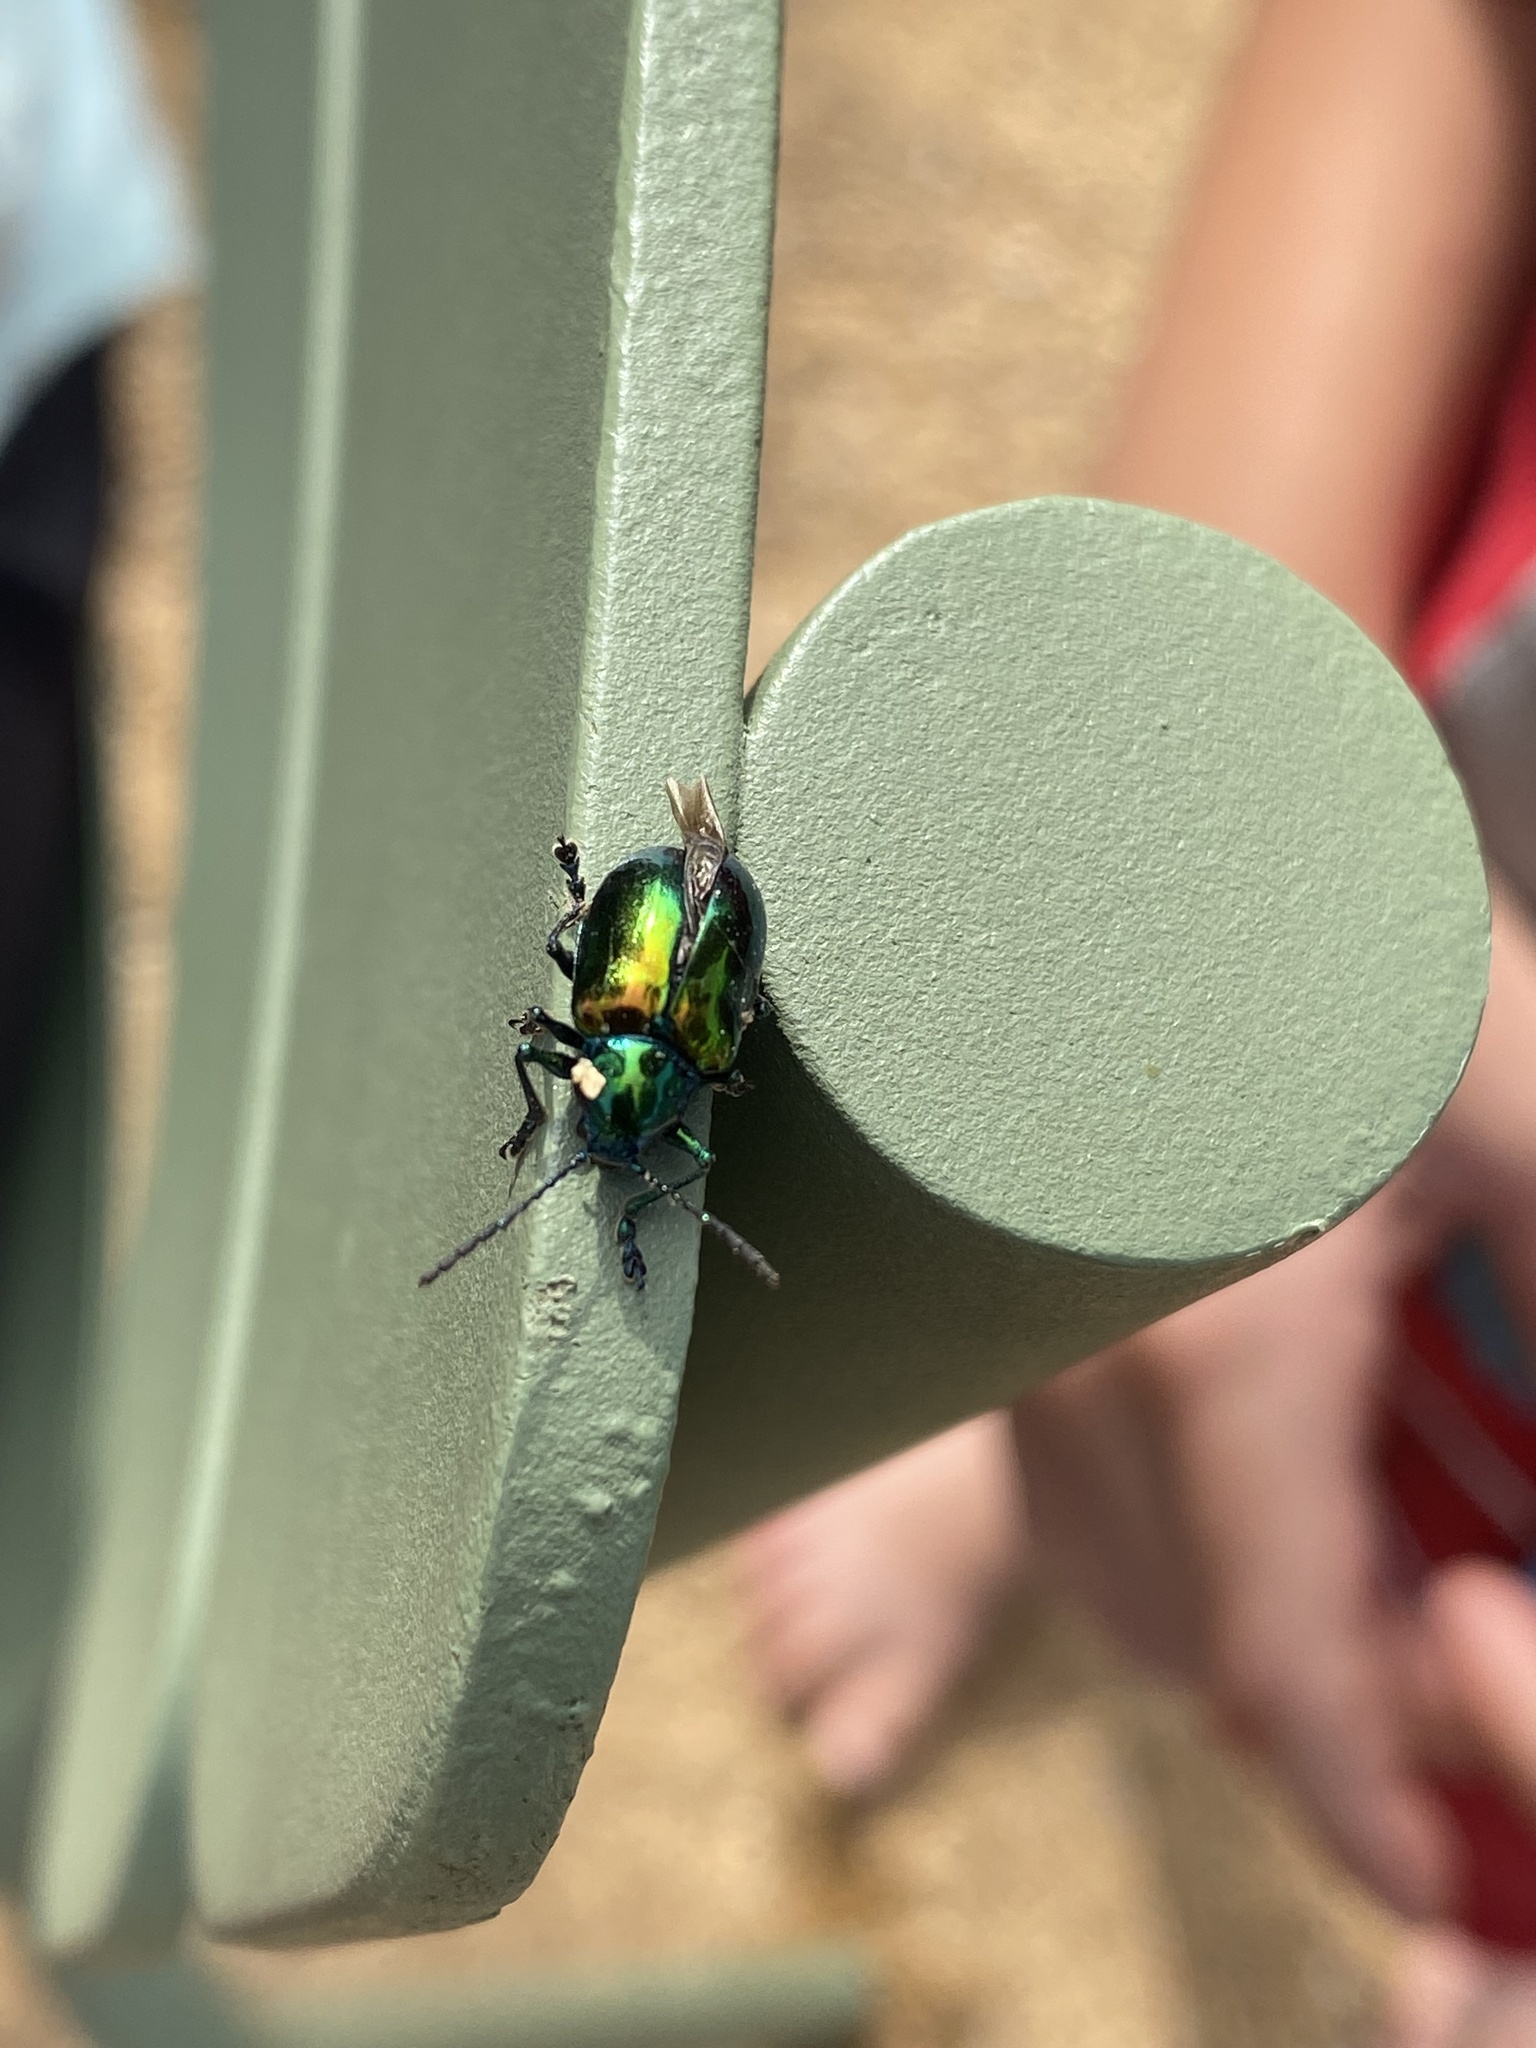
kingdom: Animalia
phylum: Arthropoda
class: Insecta
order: Coleoptera
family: Chrysomelidae
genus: Chrysochus
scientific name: Chrysochus auratus
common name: Dogbane leaf beetle
